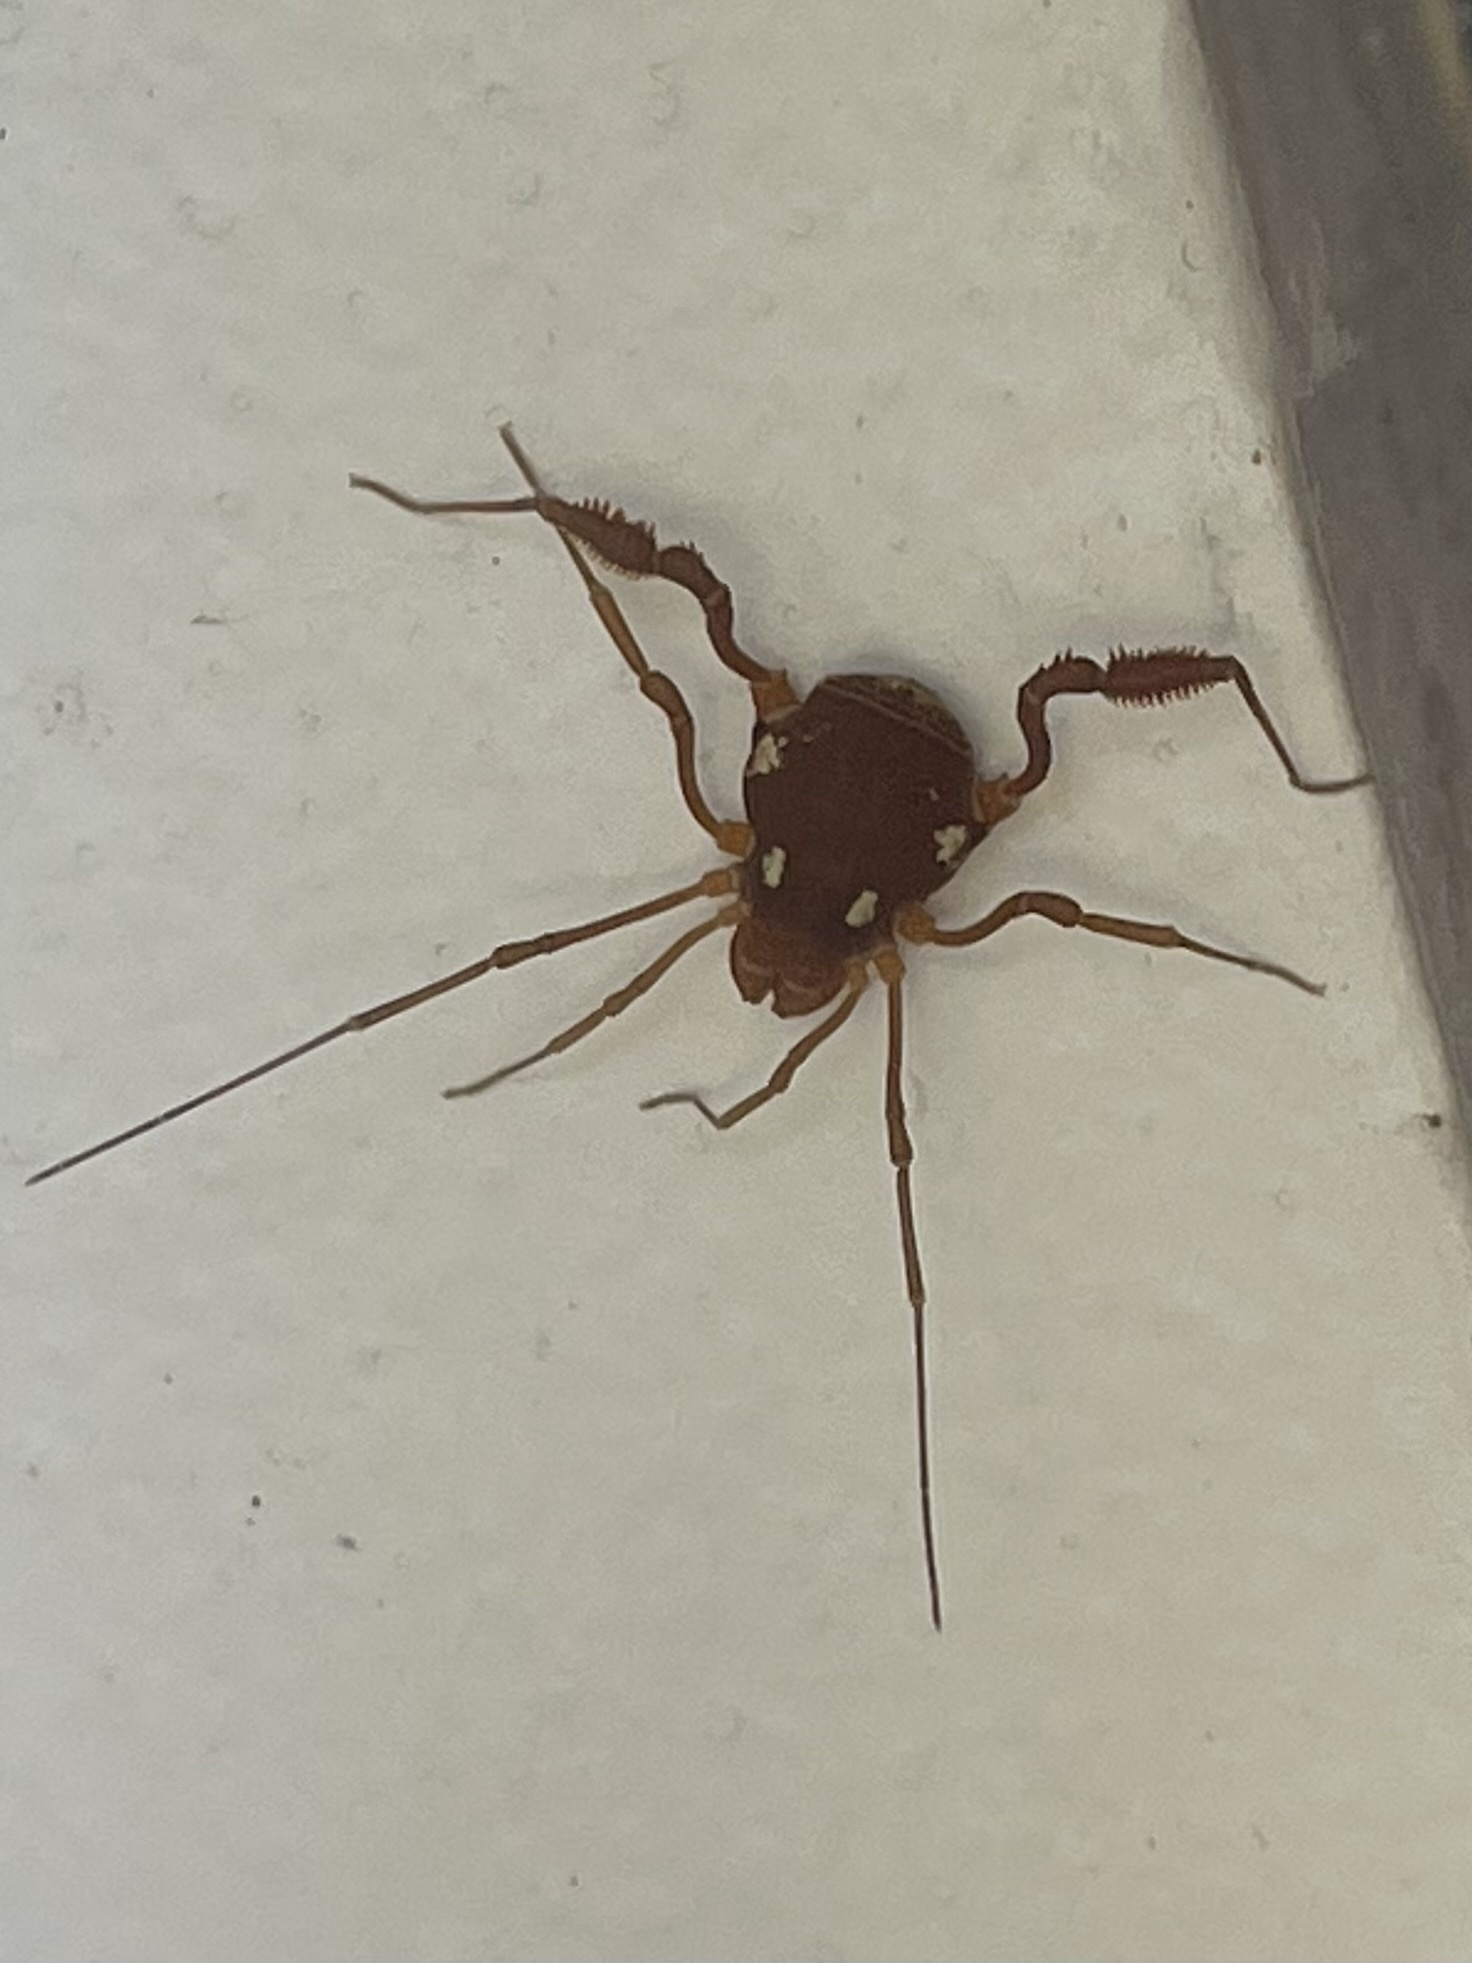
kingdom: Animalia
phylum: Arthropoda
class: Arachnida
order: Opiliones
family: Cosmetidae
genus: Erginulus
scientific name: Erginulus roeweri
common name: Harvestmen
